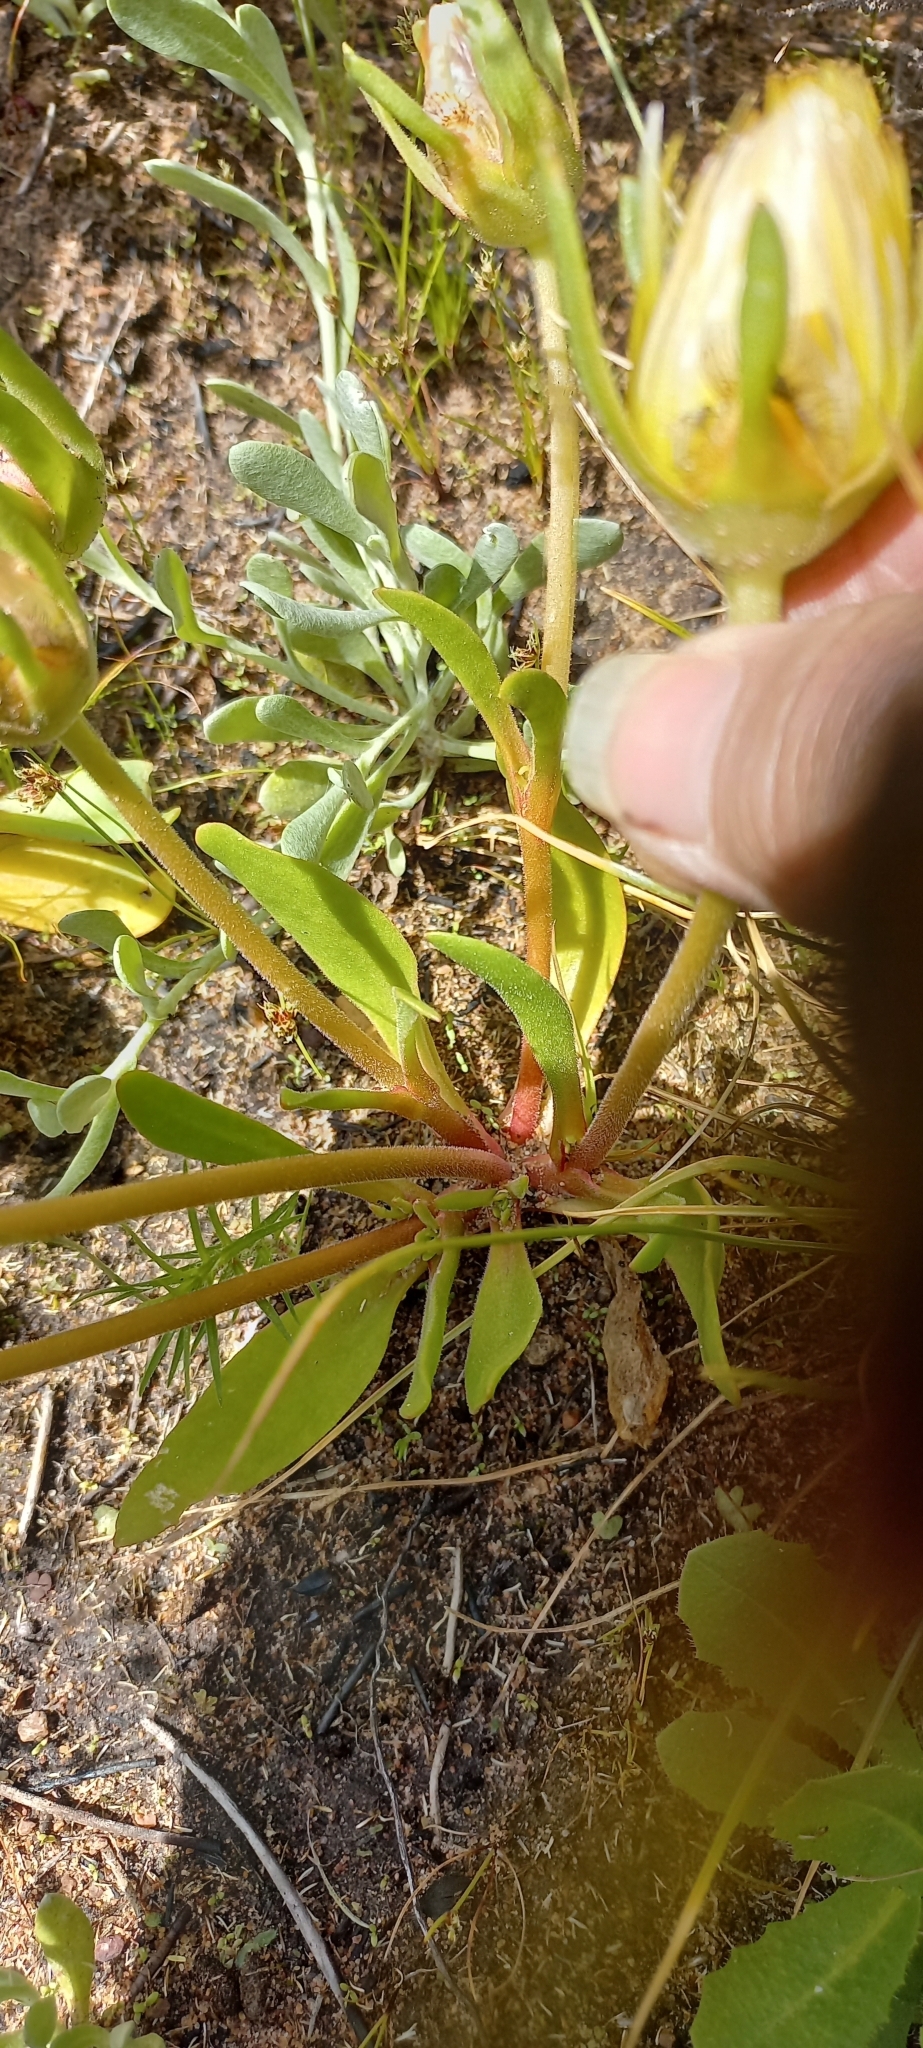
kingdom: Plantae
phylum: Tracheophyta
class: Magnoliopsida
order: Caryophyllales
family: Aizoaceae
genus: Carpanthea
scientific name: Carpanthea pomeridiana
